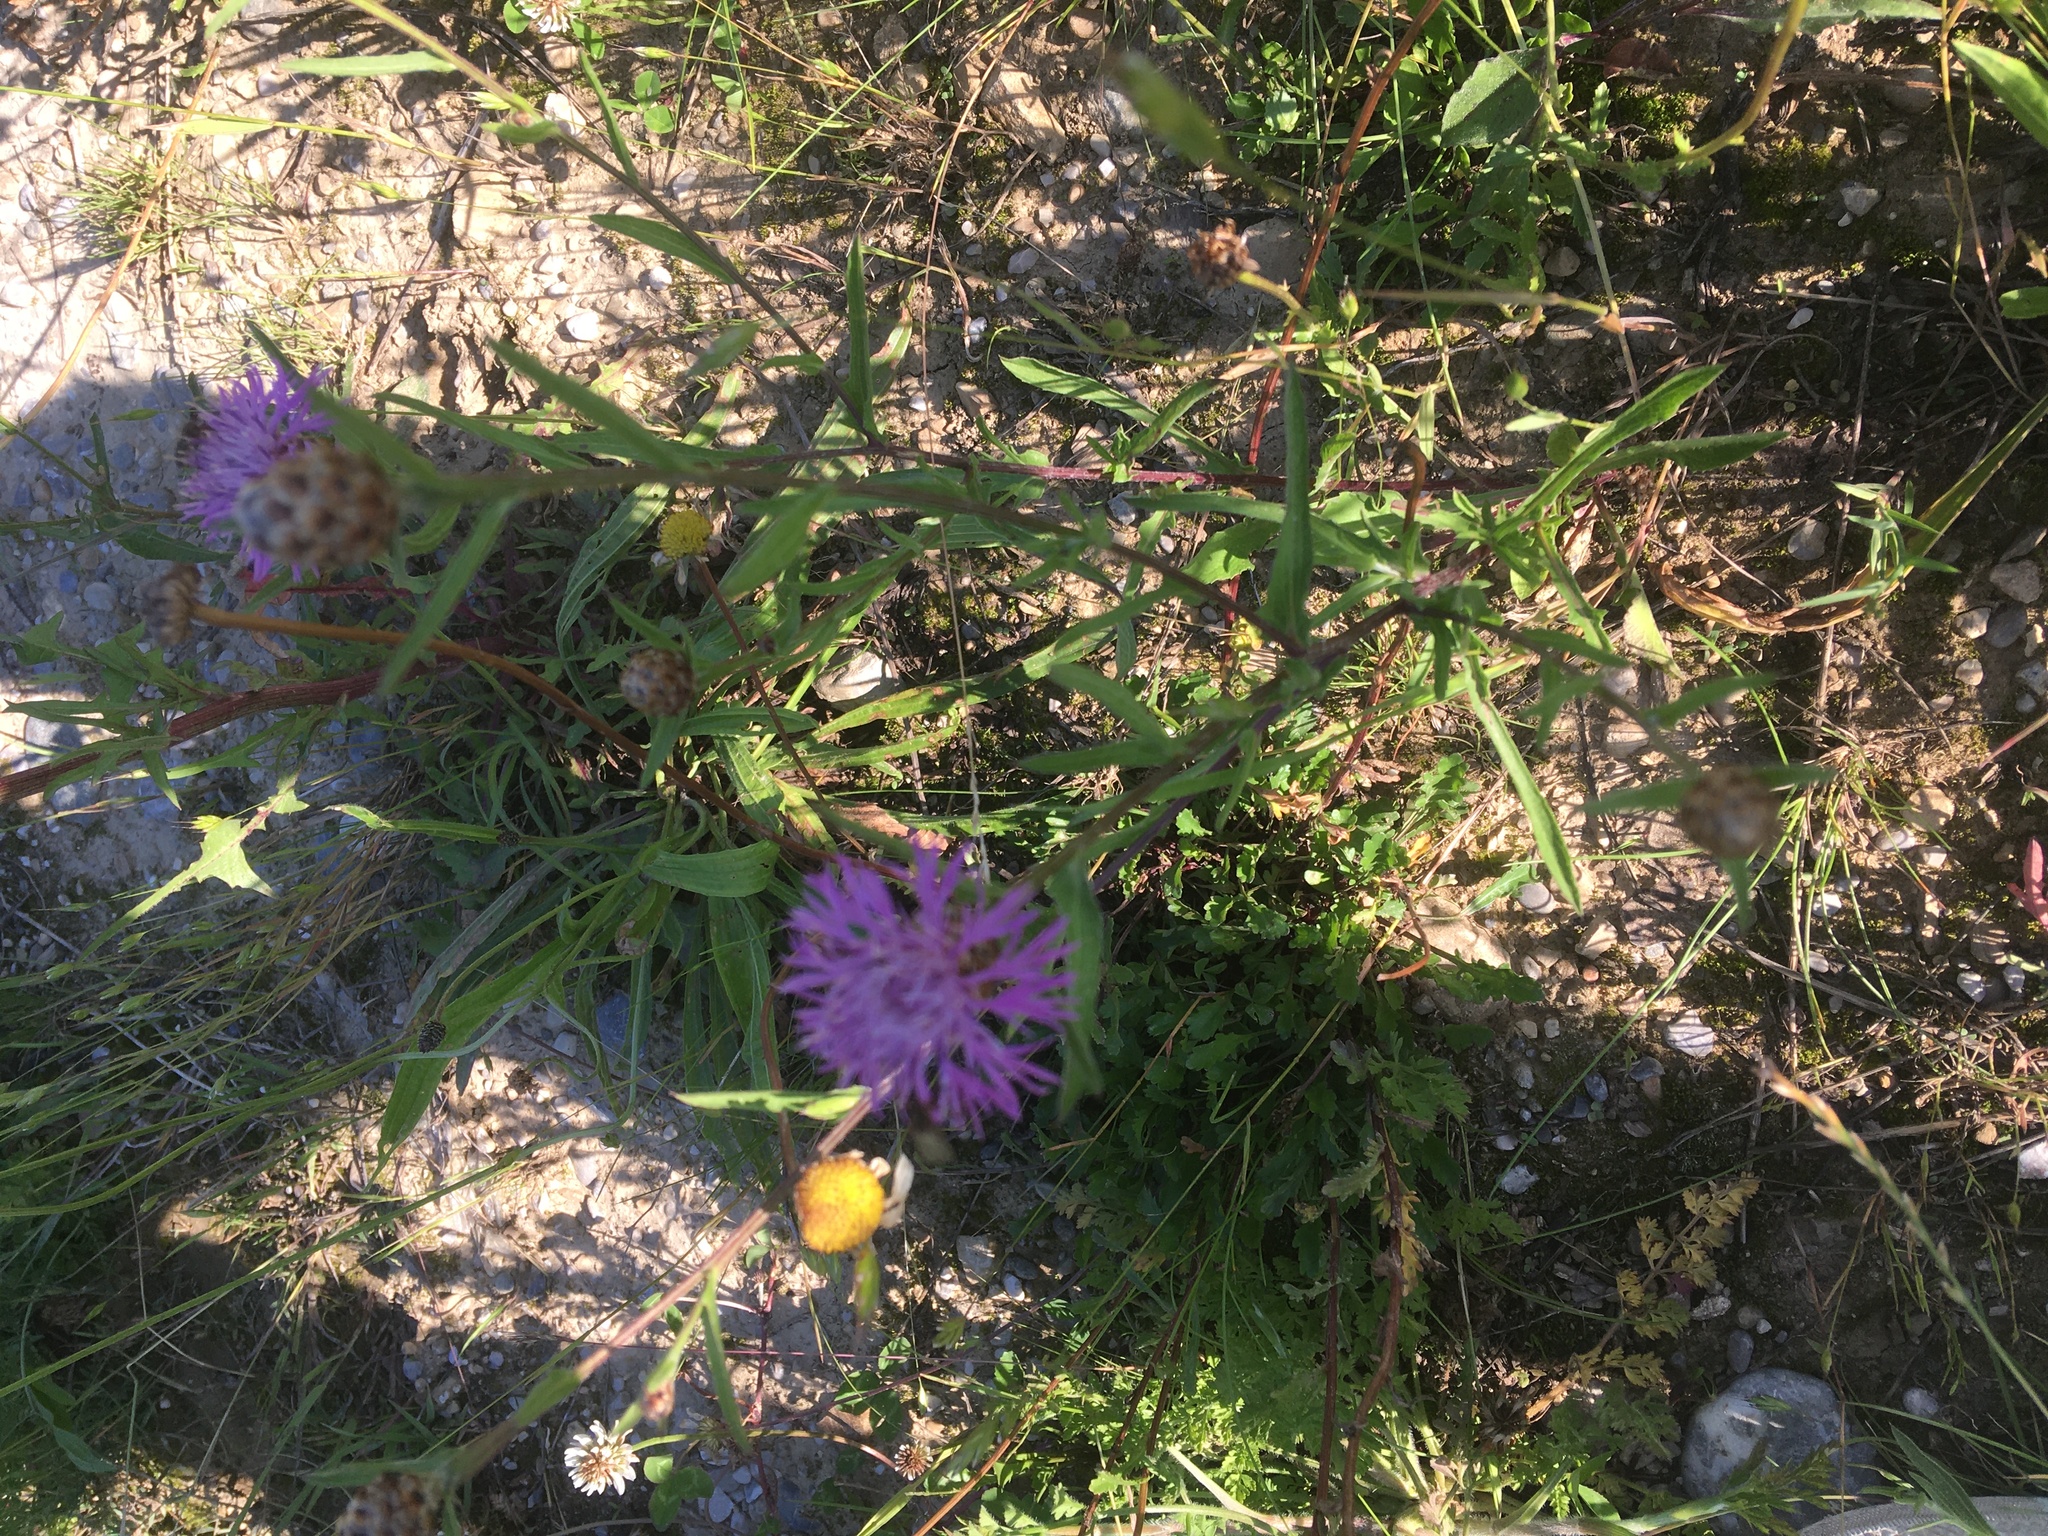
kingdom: Plantae
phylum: Tracheophyta
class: Magnoliopsida
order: Asterales
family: Asteraceae
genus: Centaurea
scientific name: Centaurea jacea
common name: Brown knapweed
